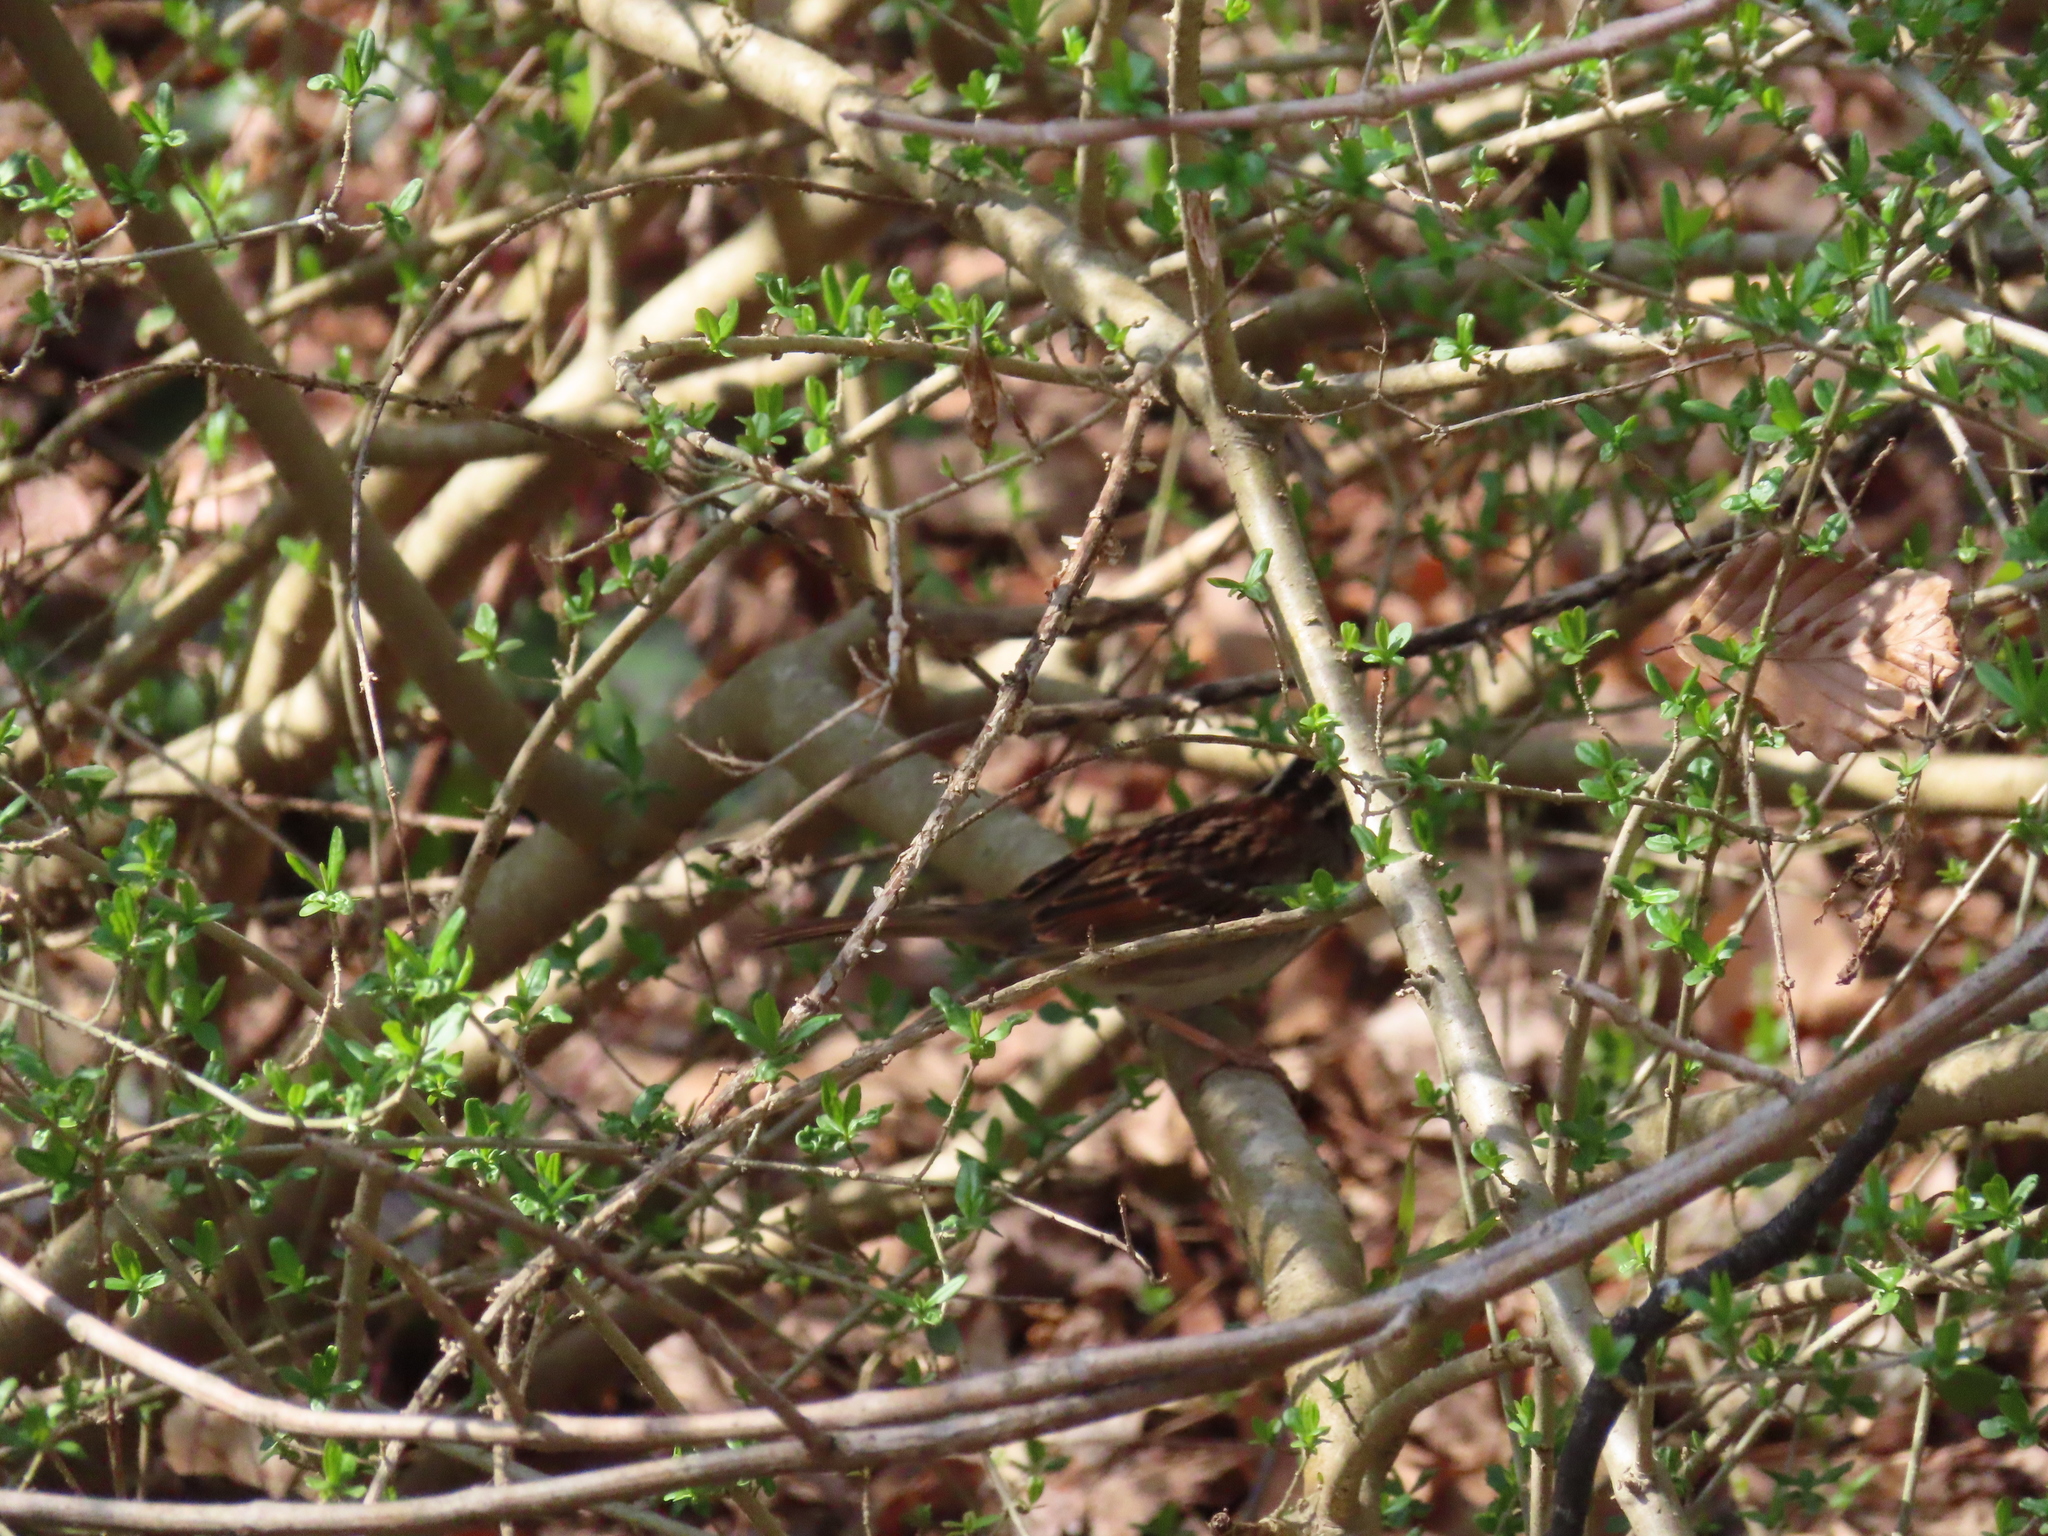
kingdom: Animalia
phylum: Chordata
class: Aves
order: Passeriformes
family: Passerellidae
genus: Zonotrichia
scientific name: Zonotrichia albicollis
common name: White-throated sparrow
